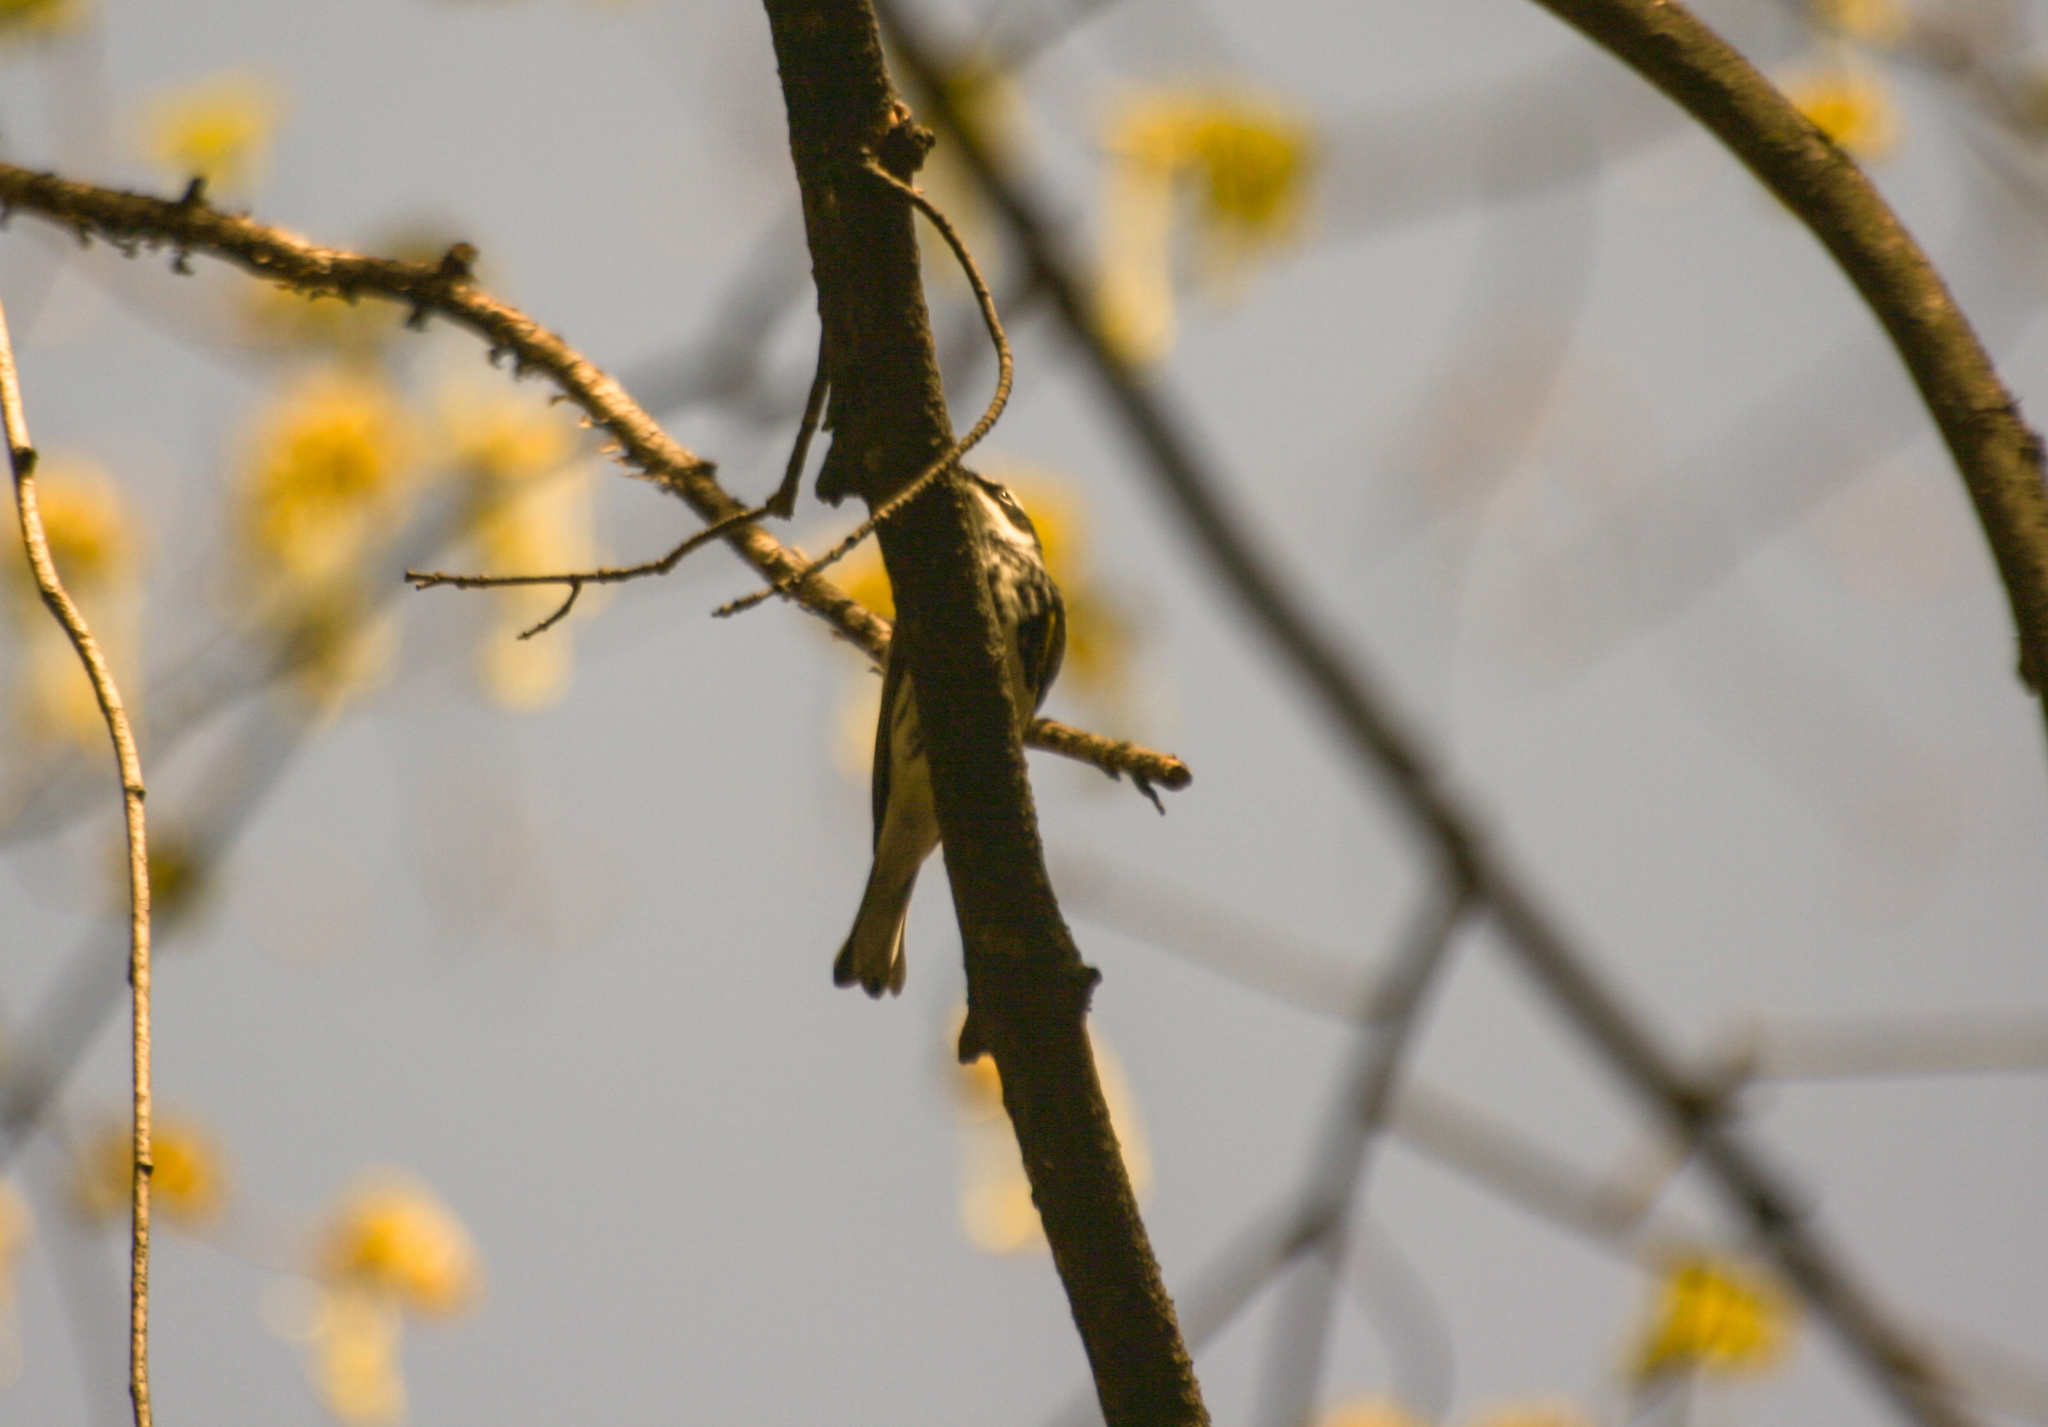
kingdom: Animalia
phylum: Chordata
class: Aves
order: Passeriformes
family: Parulidae
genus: Setophaga
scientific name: Setophaga coronata
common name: Myrtle warbler
